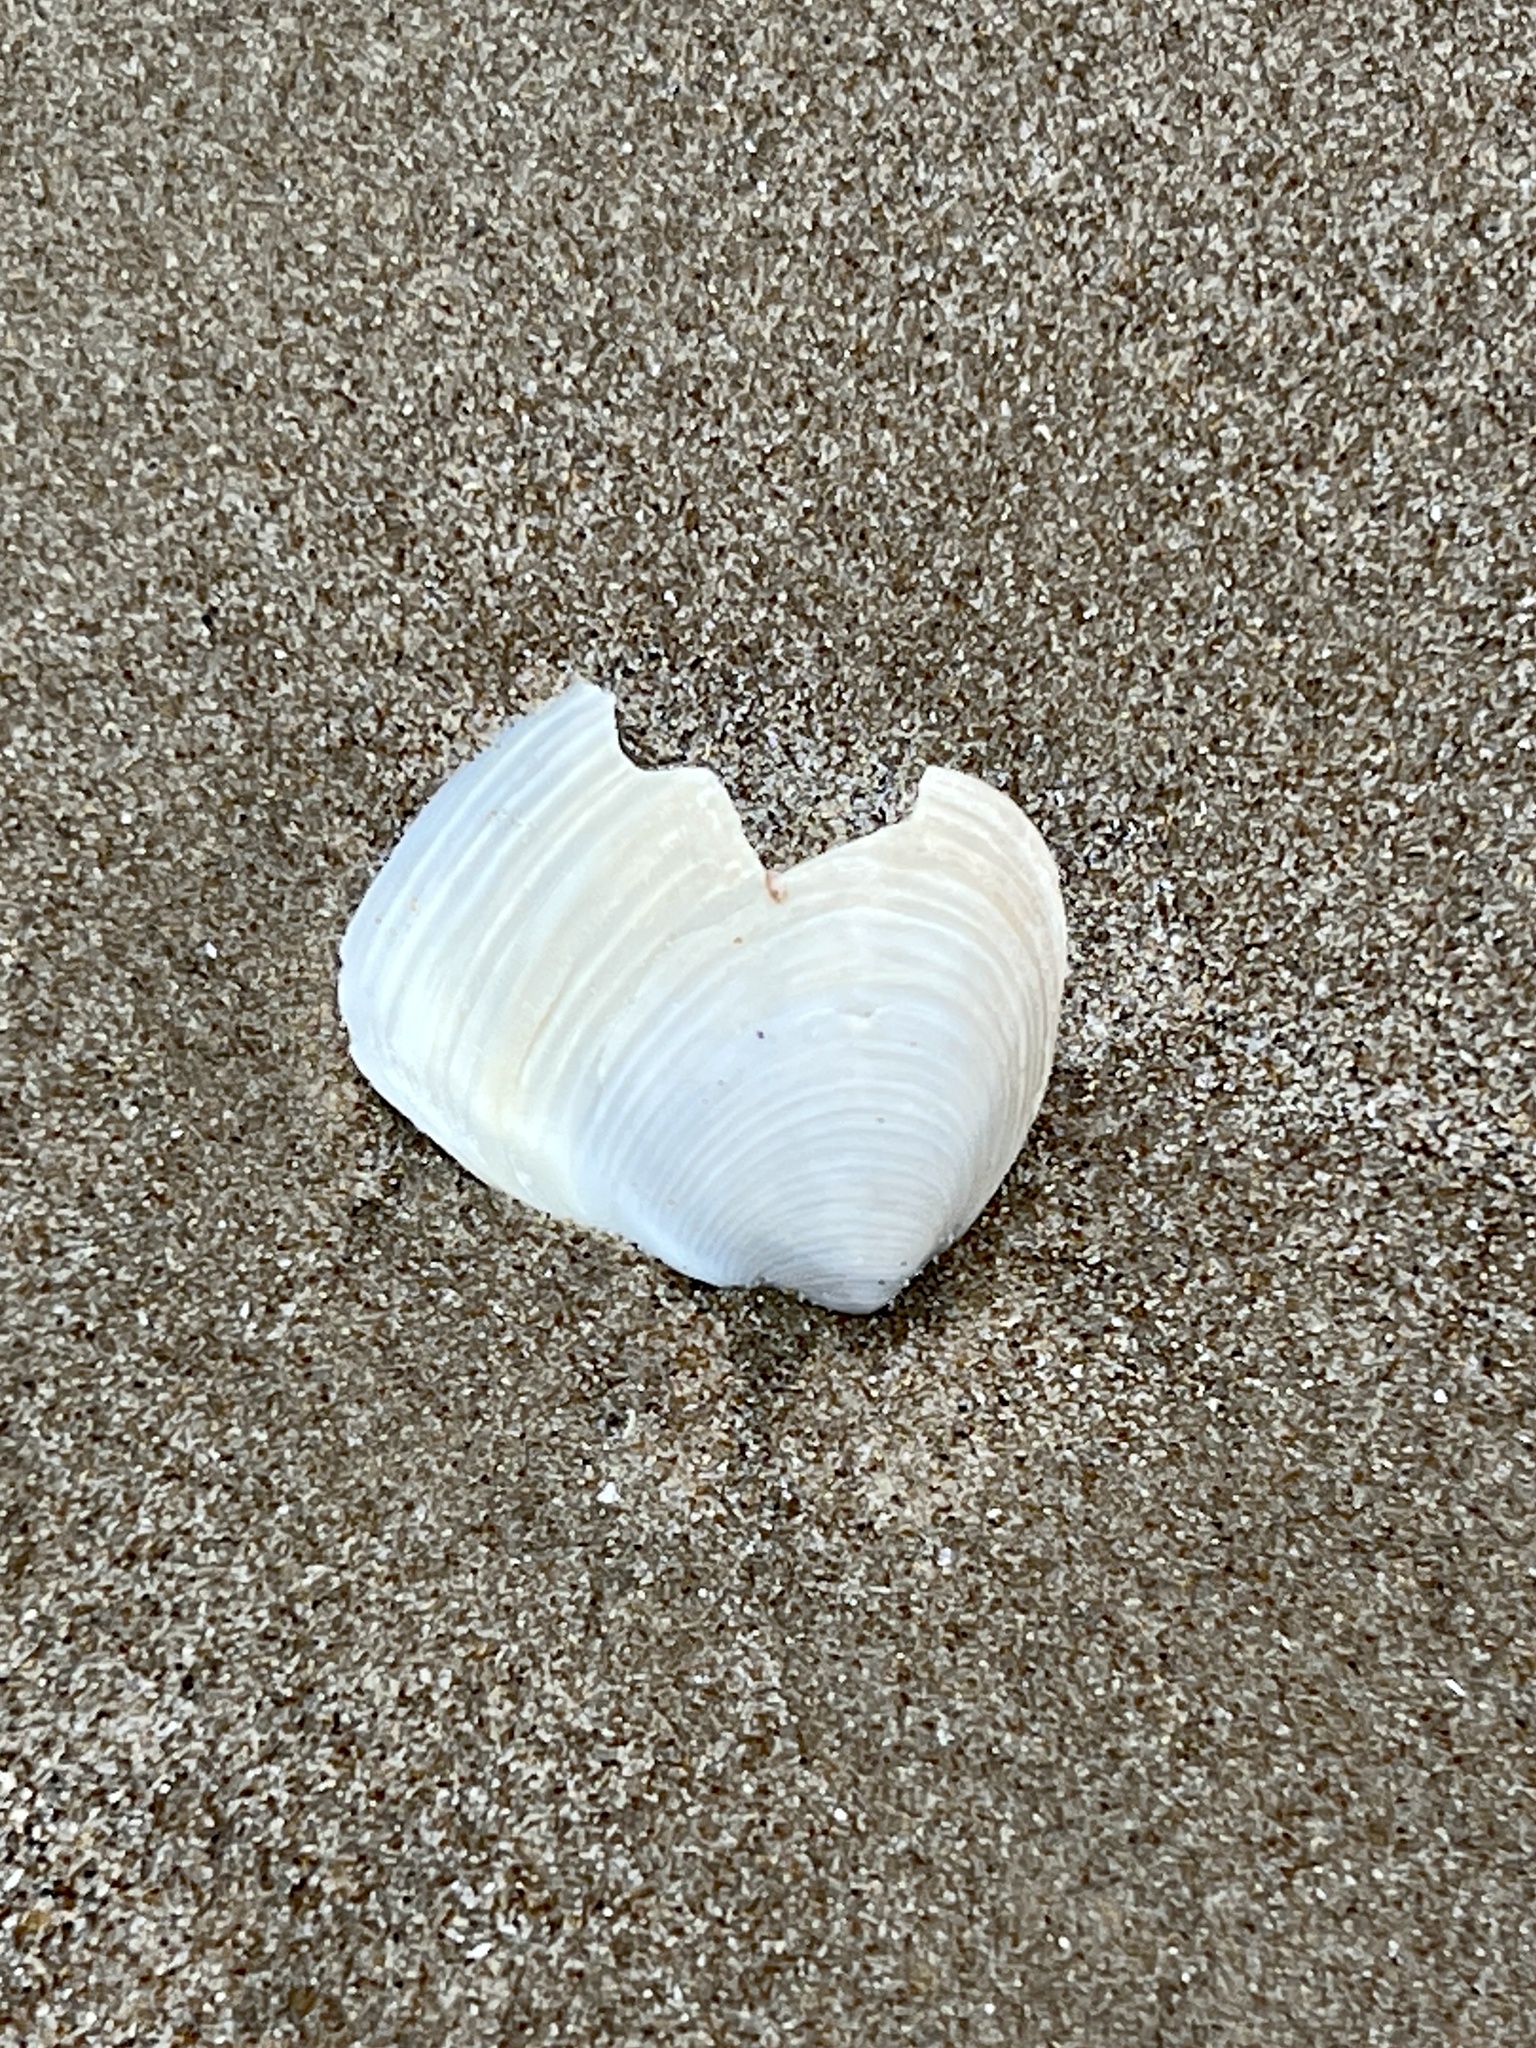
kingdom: Animalia
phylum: Mollusca
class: Bivalvia
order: Venerida
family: Anatinellidae
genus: Raeta
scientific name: Raeta plicatella
